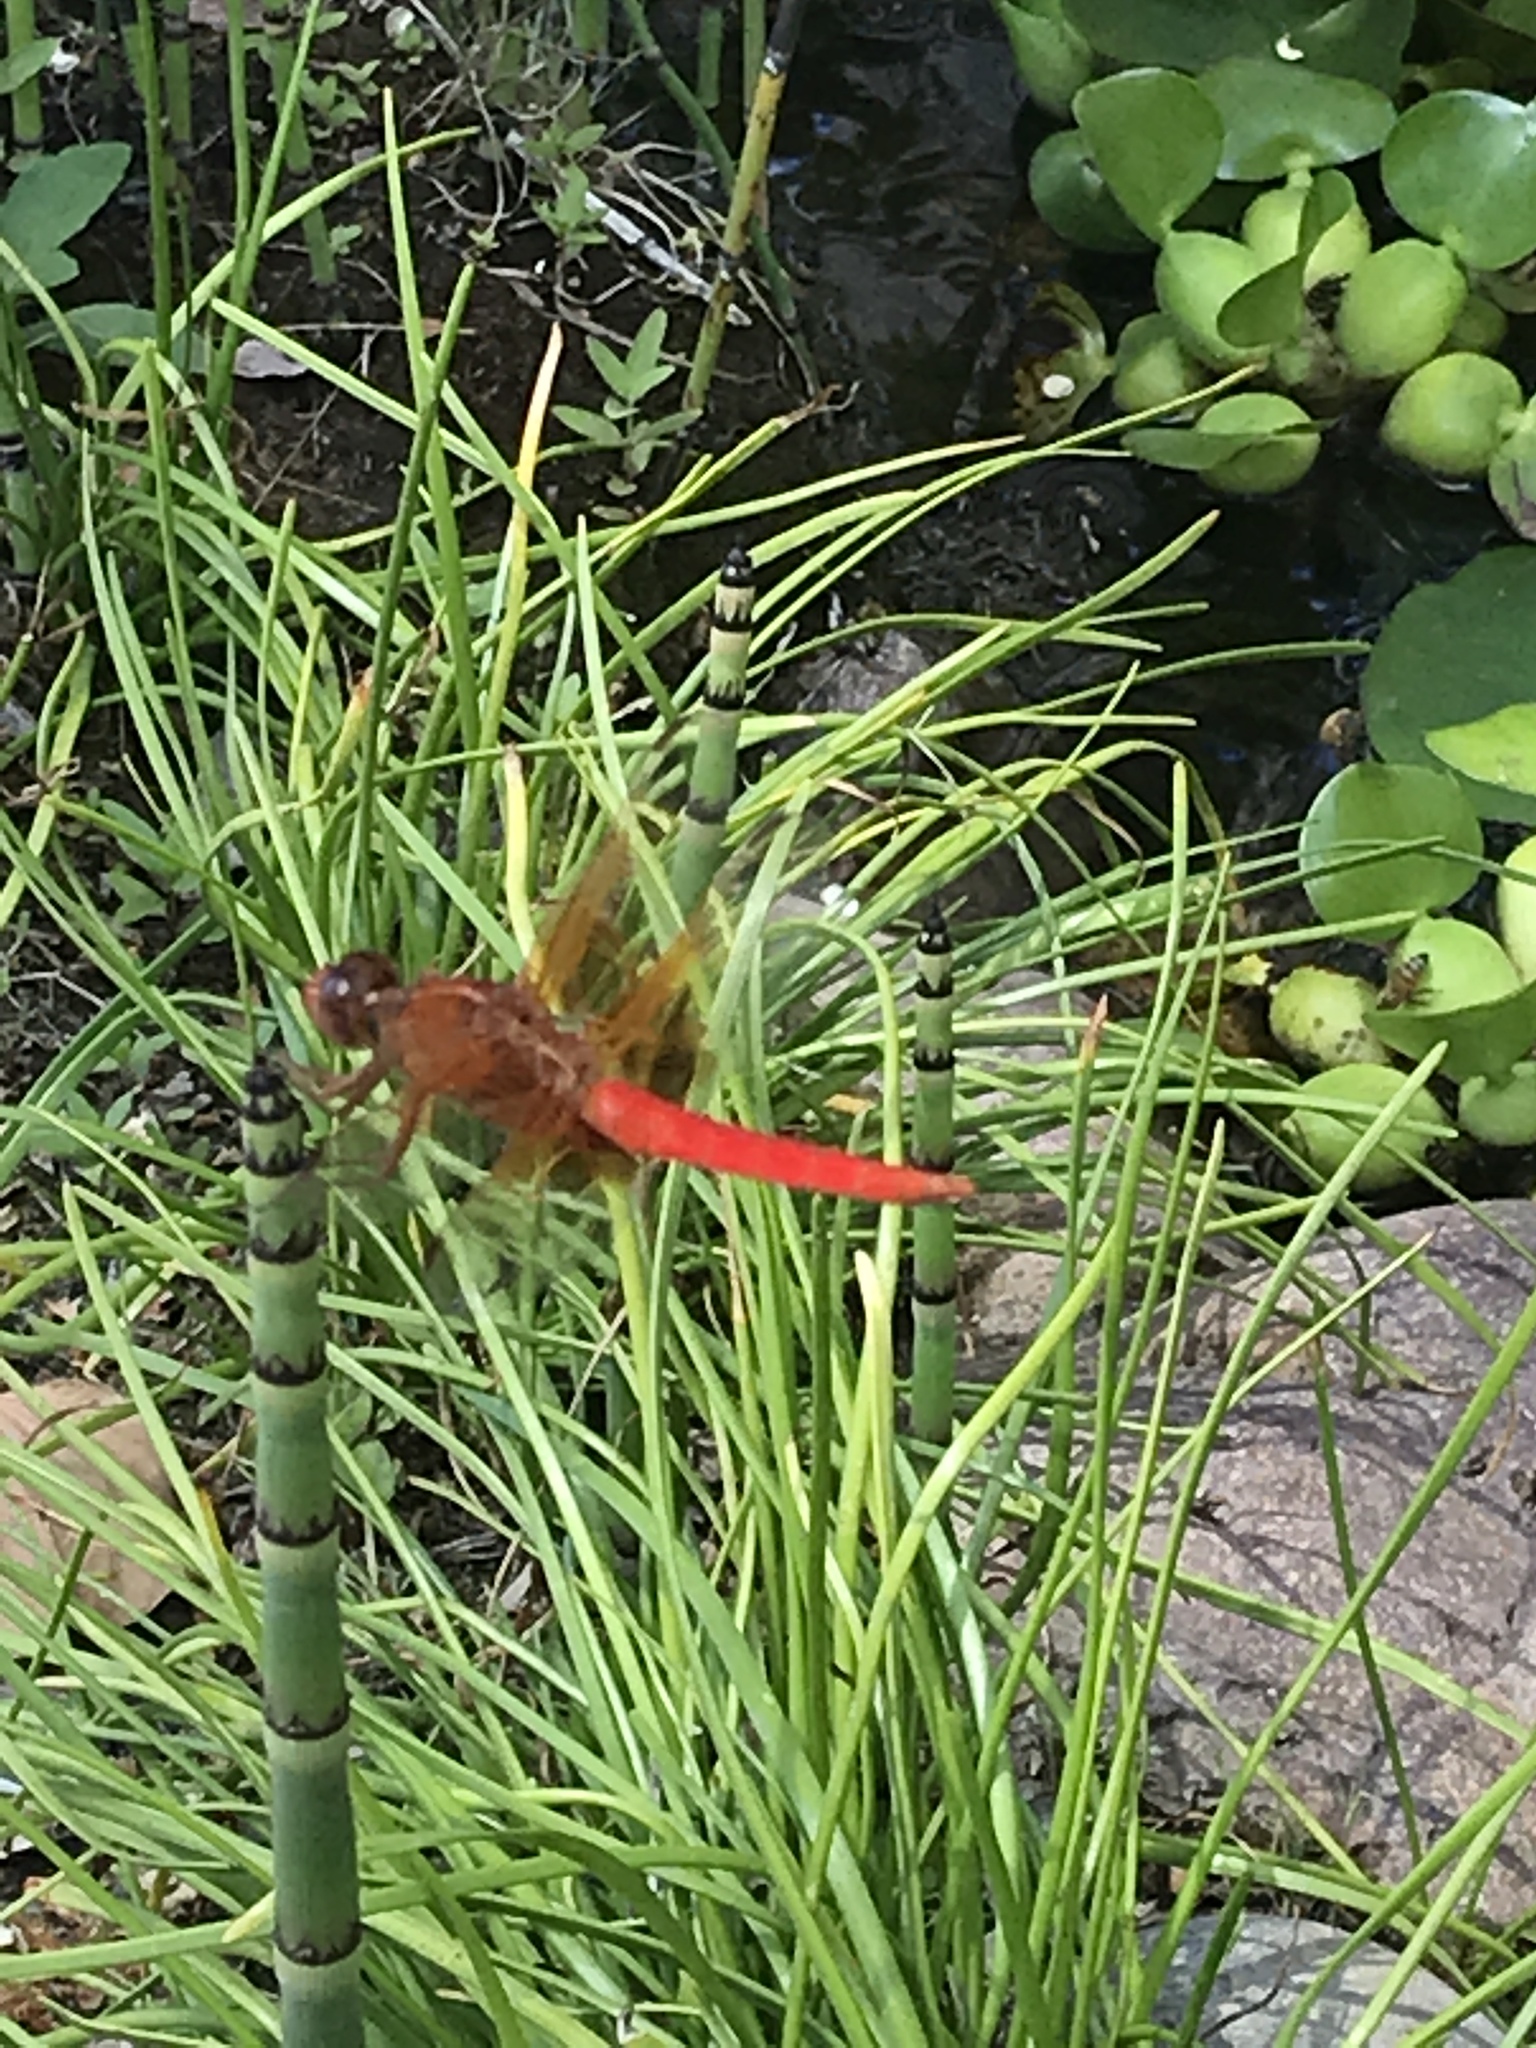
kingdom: Animalia
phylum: Arthropoda
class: Insecta
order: Odonata
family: Libellulidae
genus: Libellula
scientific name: Libellula croceipennis
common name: Neon skimmer
